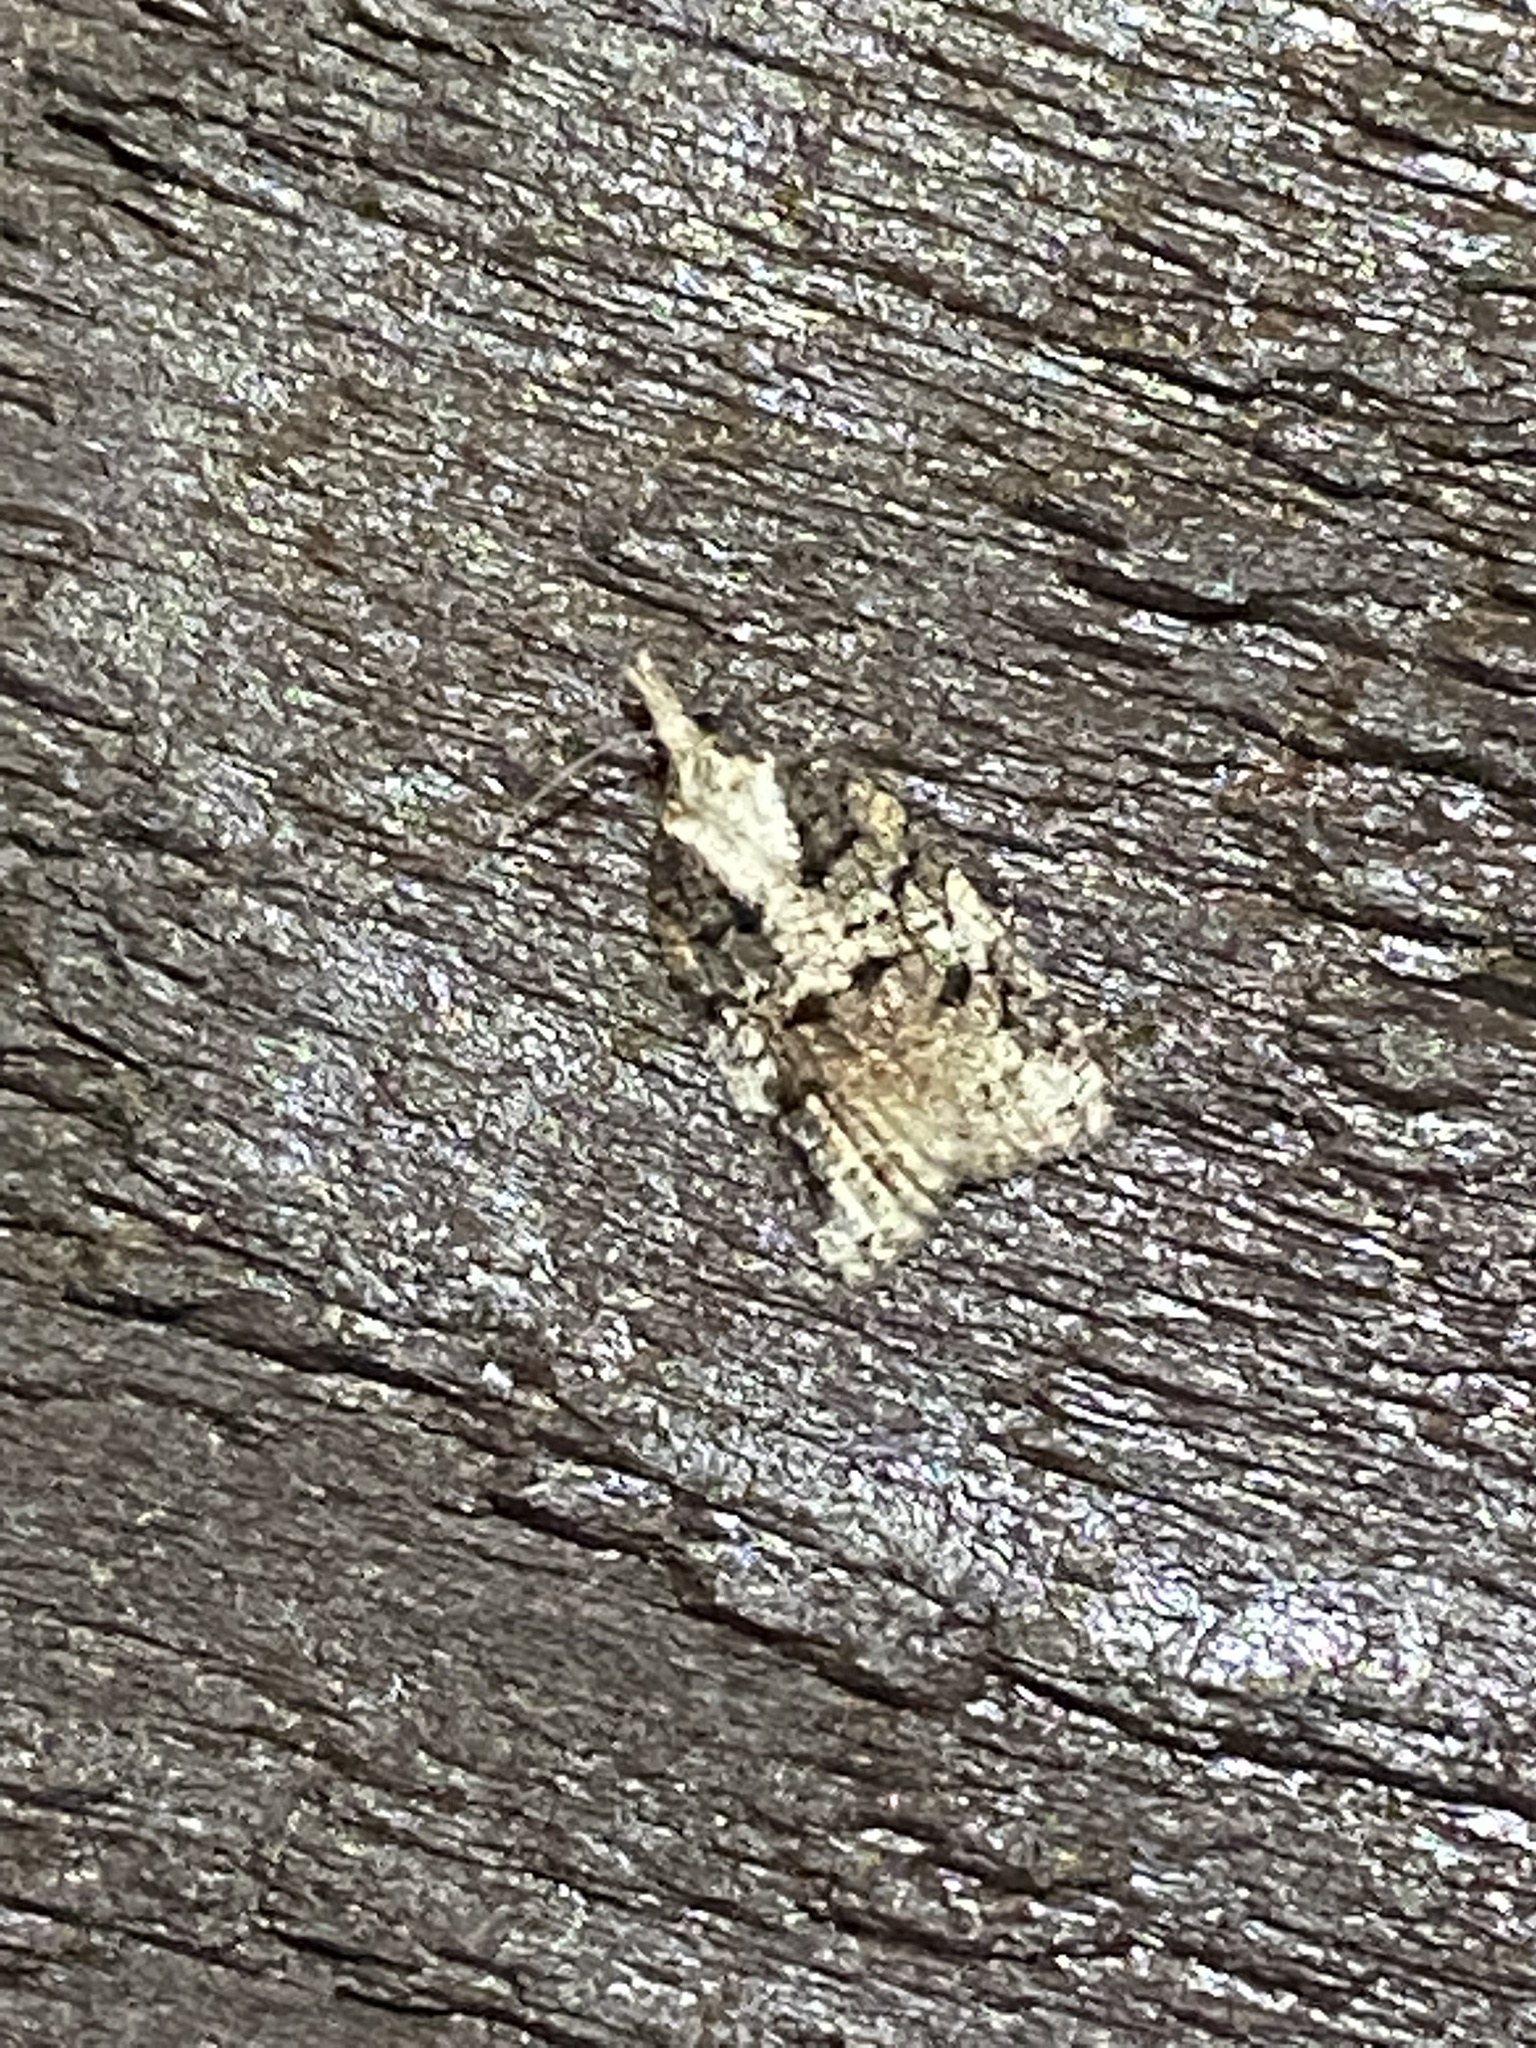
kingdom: Animalia
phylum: Arthropoda
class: Insecta
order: Lepidoptera
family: Tortricidae
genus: Platynota
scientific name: Platynota exasperatana
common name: Exasperating platynota moth
